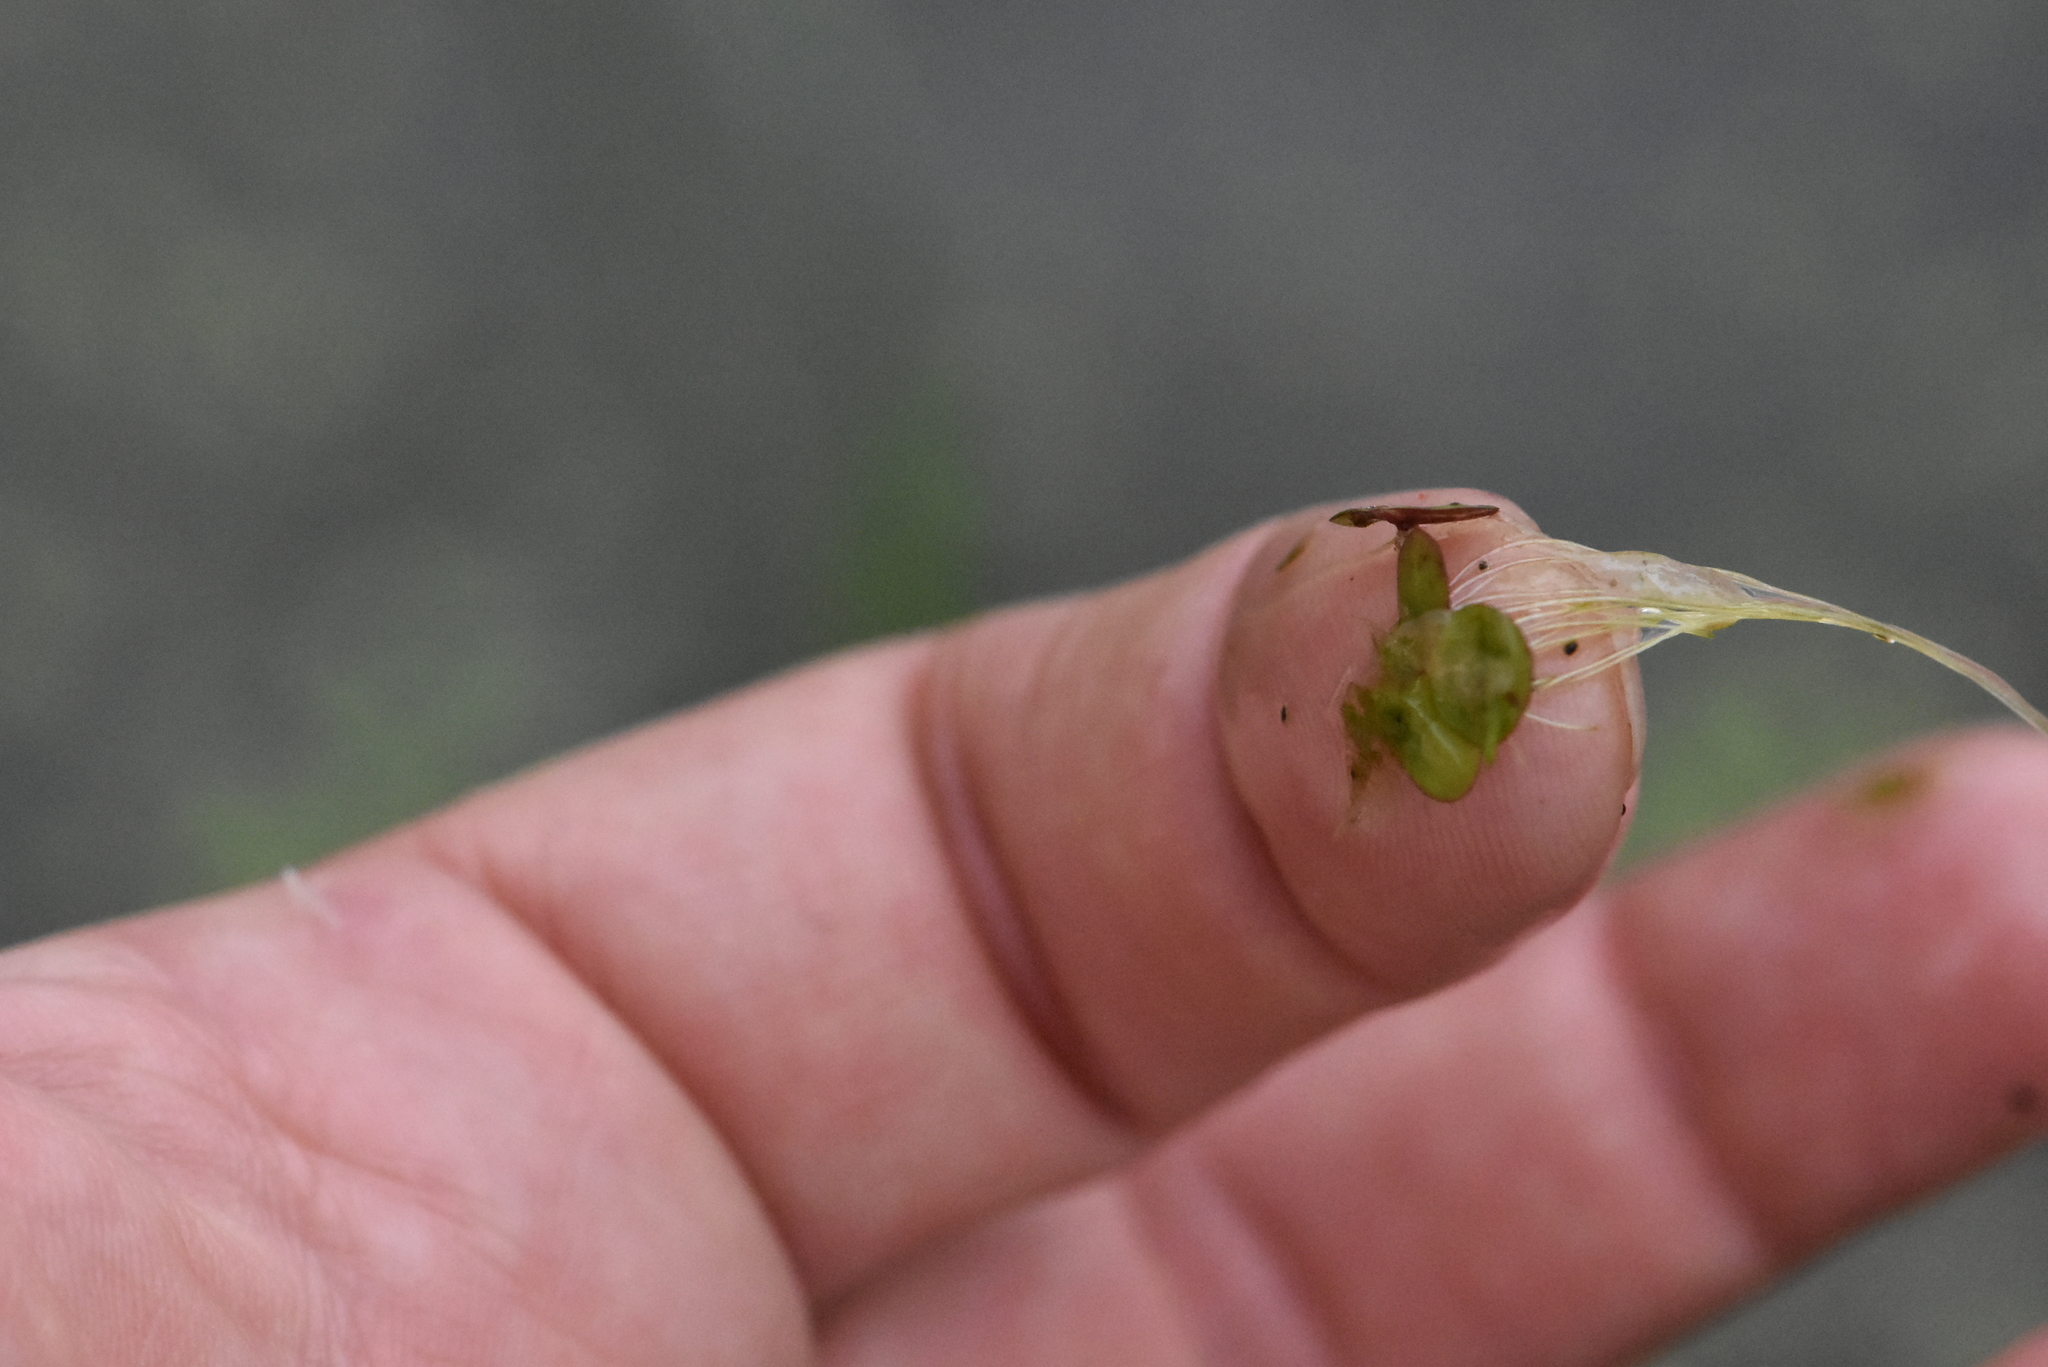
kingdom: Plantae
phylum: Tracheophyta
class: Liliopsida
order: Alismatales
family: Araceae
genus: Spirodela
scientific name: Spirodela polyrhiza
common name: Great duckweed
